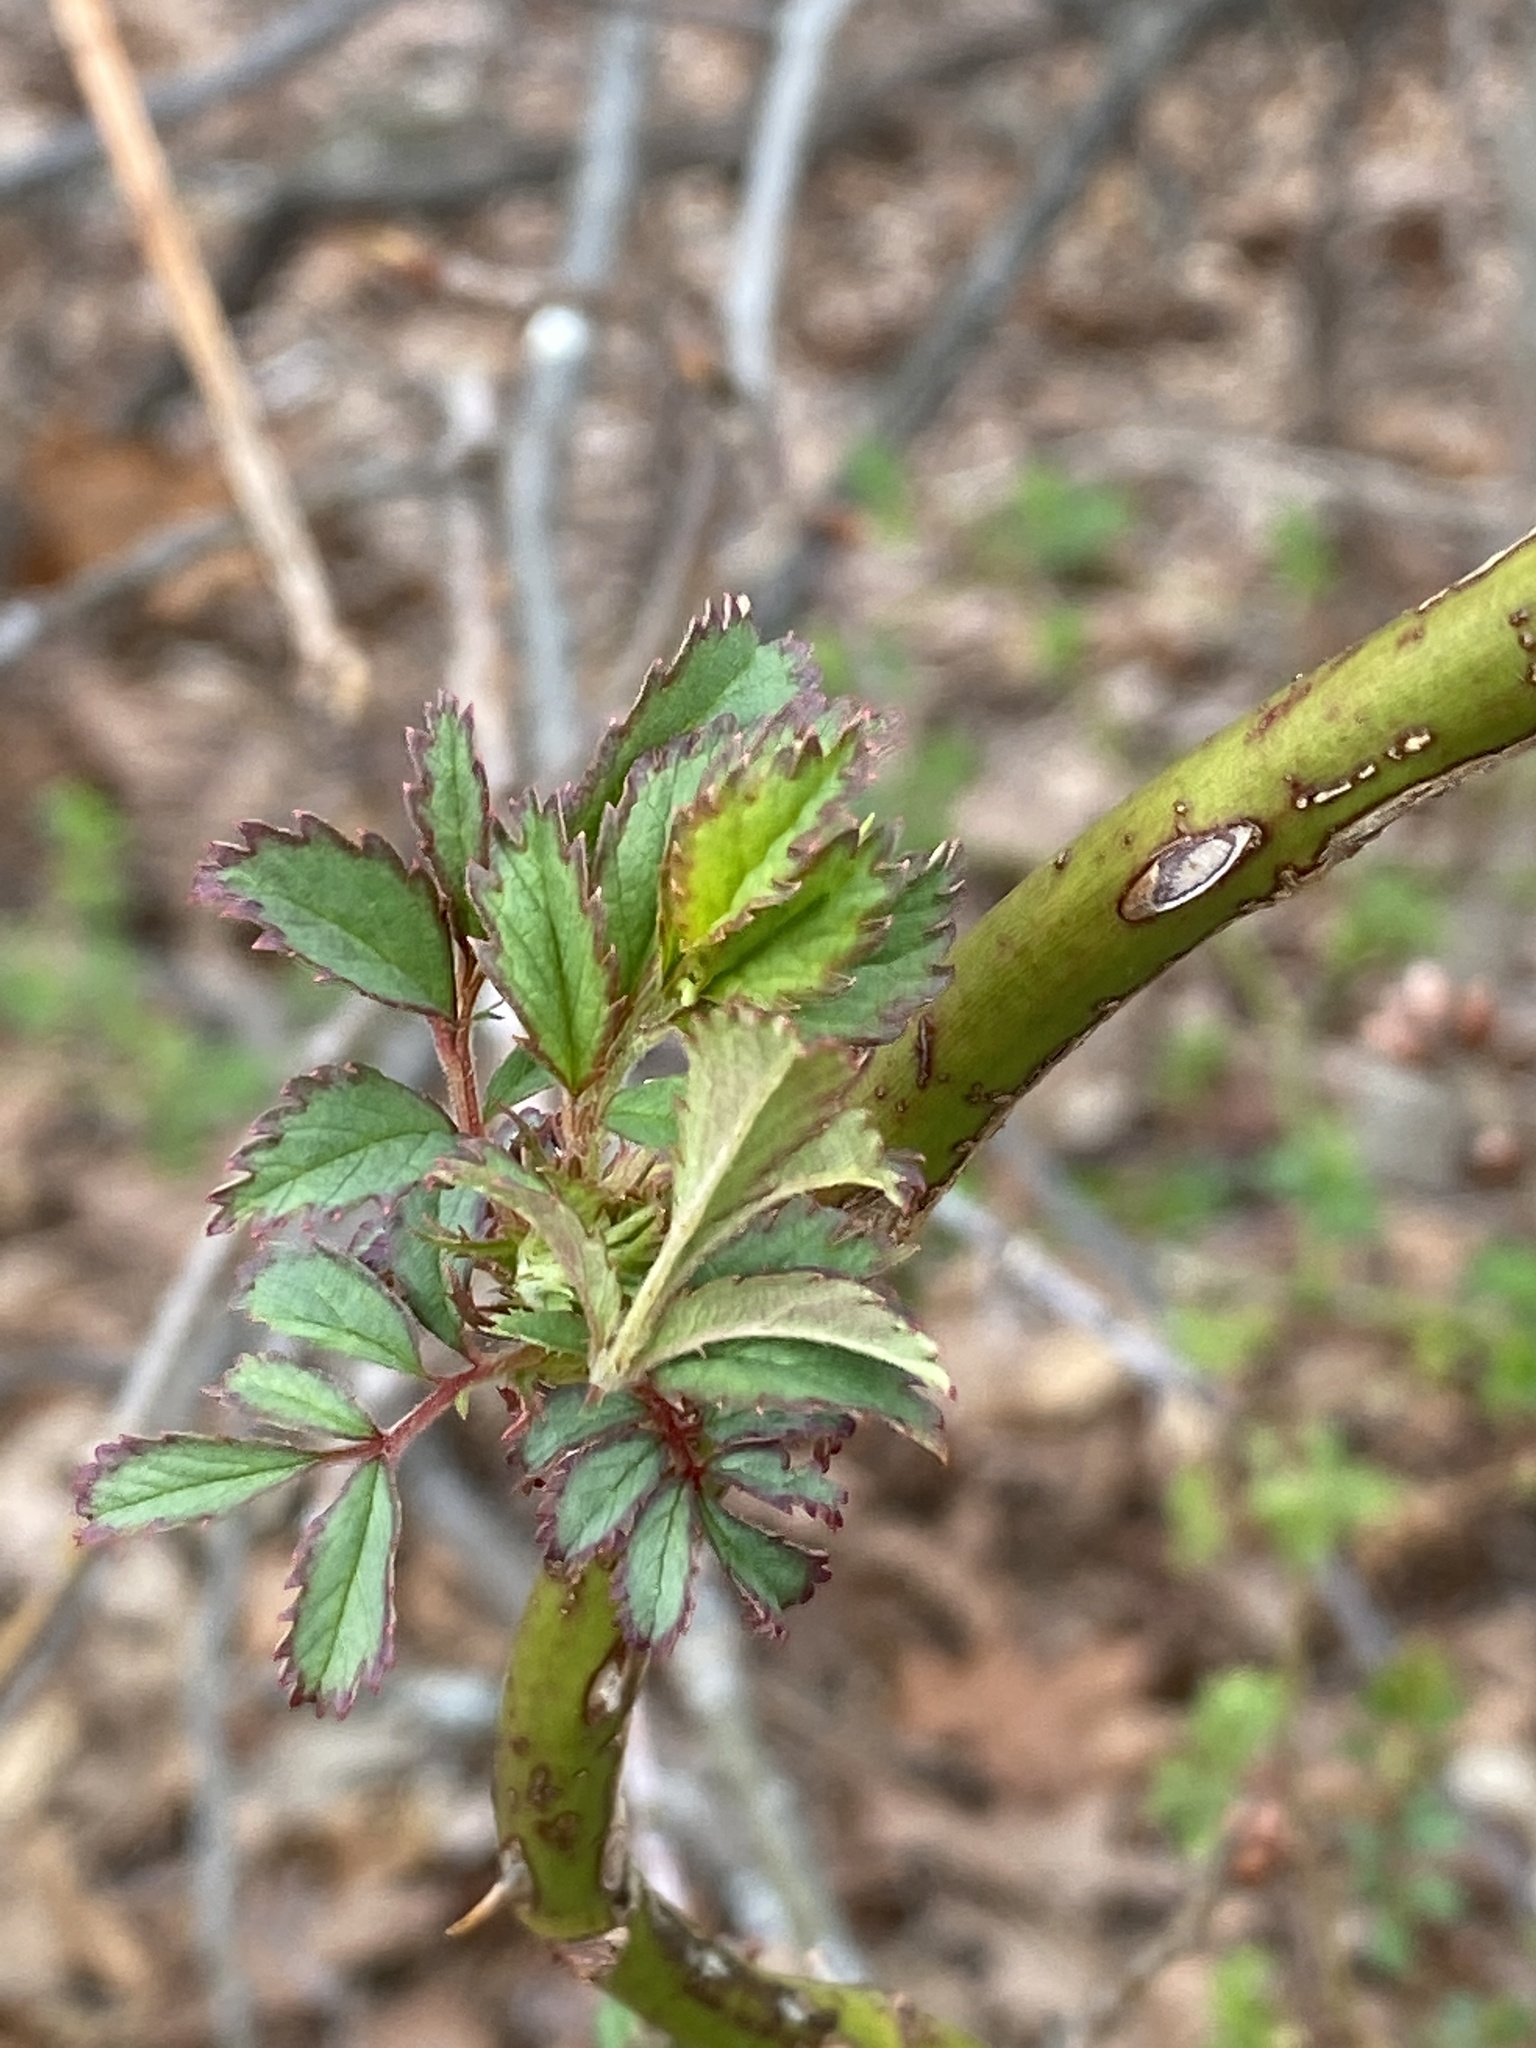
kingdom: Plantae
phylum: Tracheophyta
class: Magnoliopsida
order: Rosales
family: Rosaceae
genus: Rosa
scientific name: Rosa multiflora
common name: Multiflora rose
